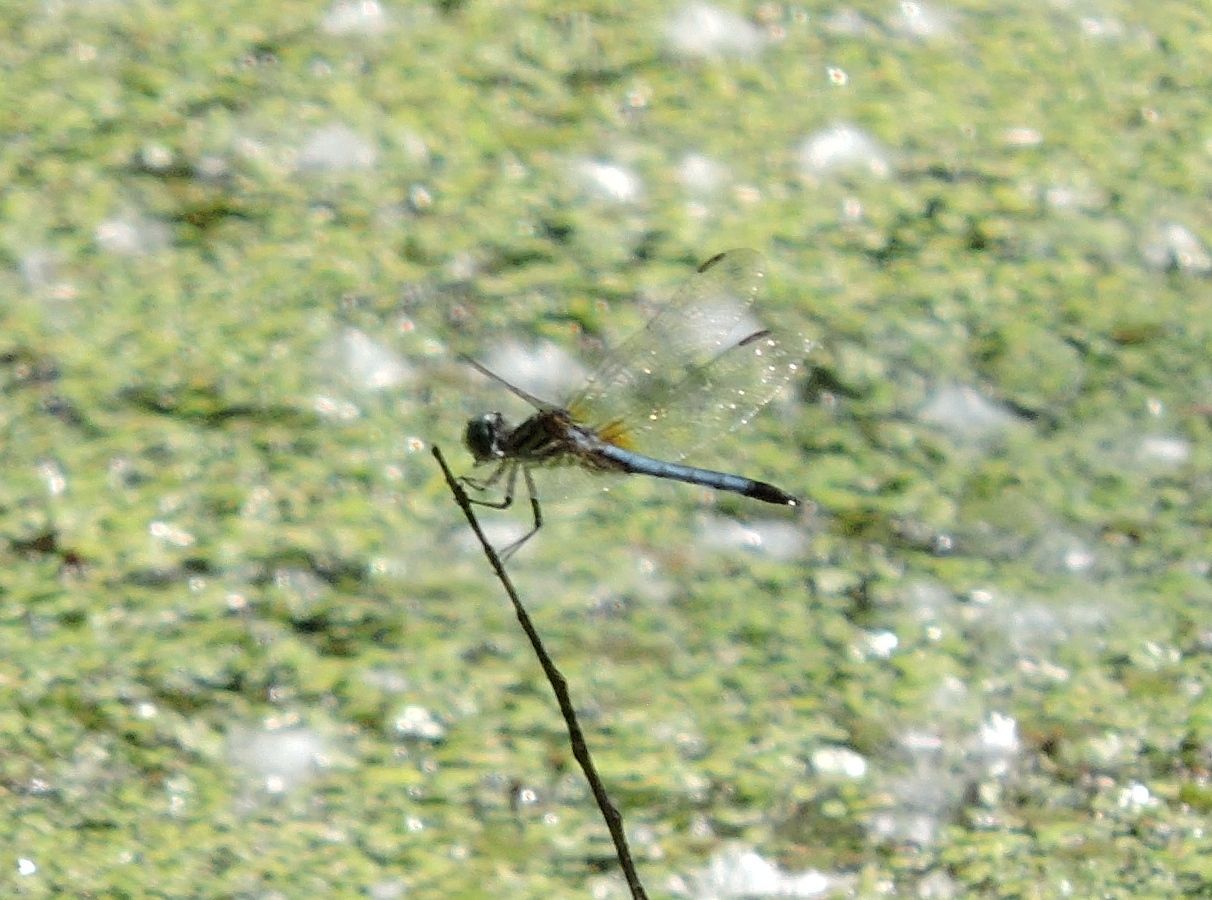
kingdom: Animalia
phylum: Arthropoda
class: Insecta
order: Odonata
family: Libellulidae
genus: Pachydiplax
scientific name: Pachydiplax longipennis
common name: Blue dasher
